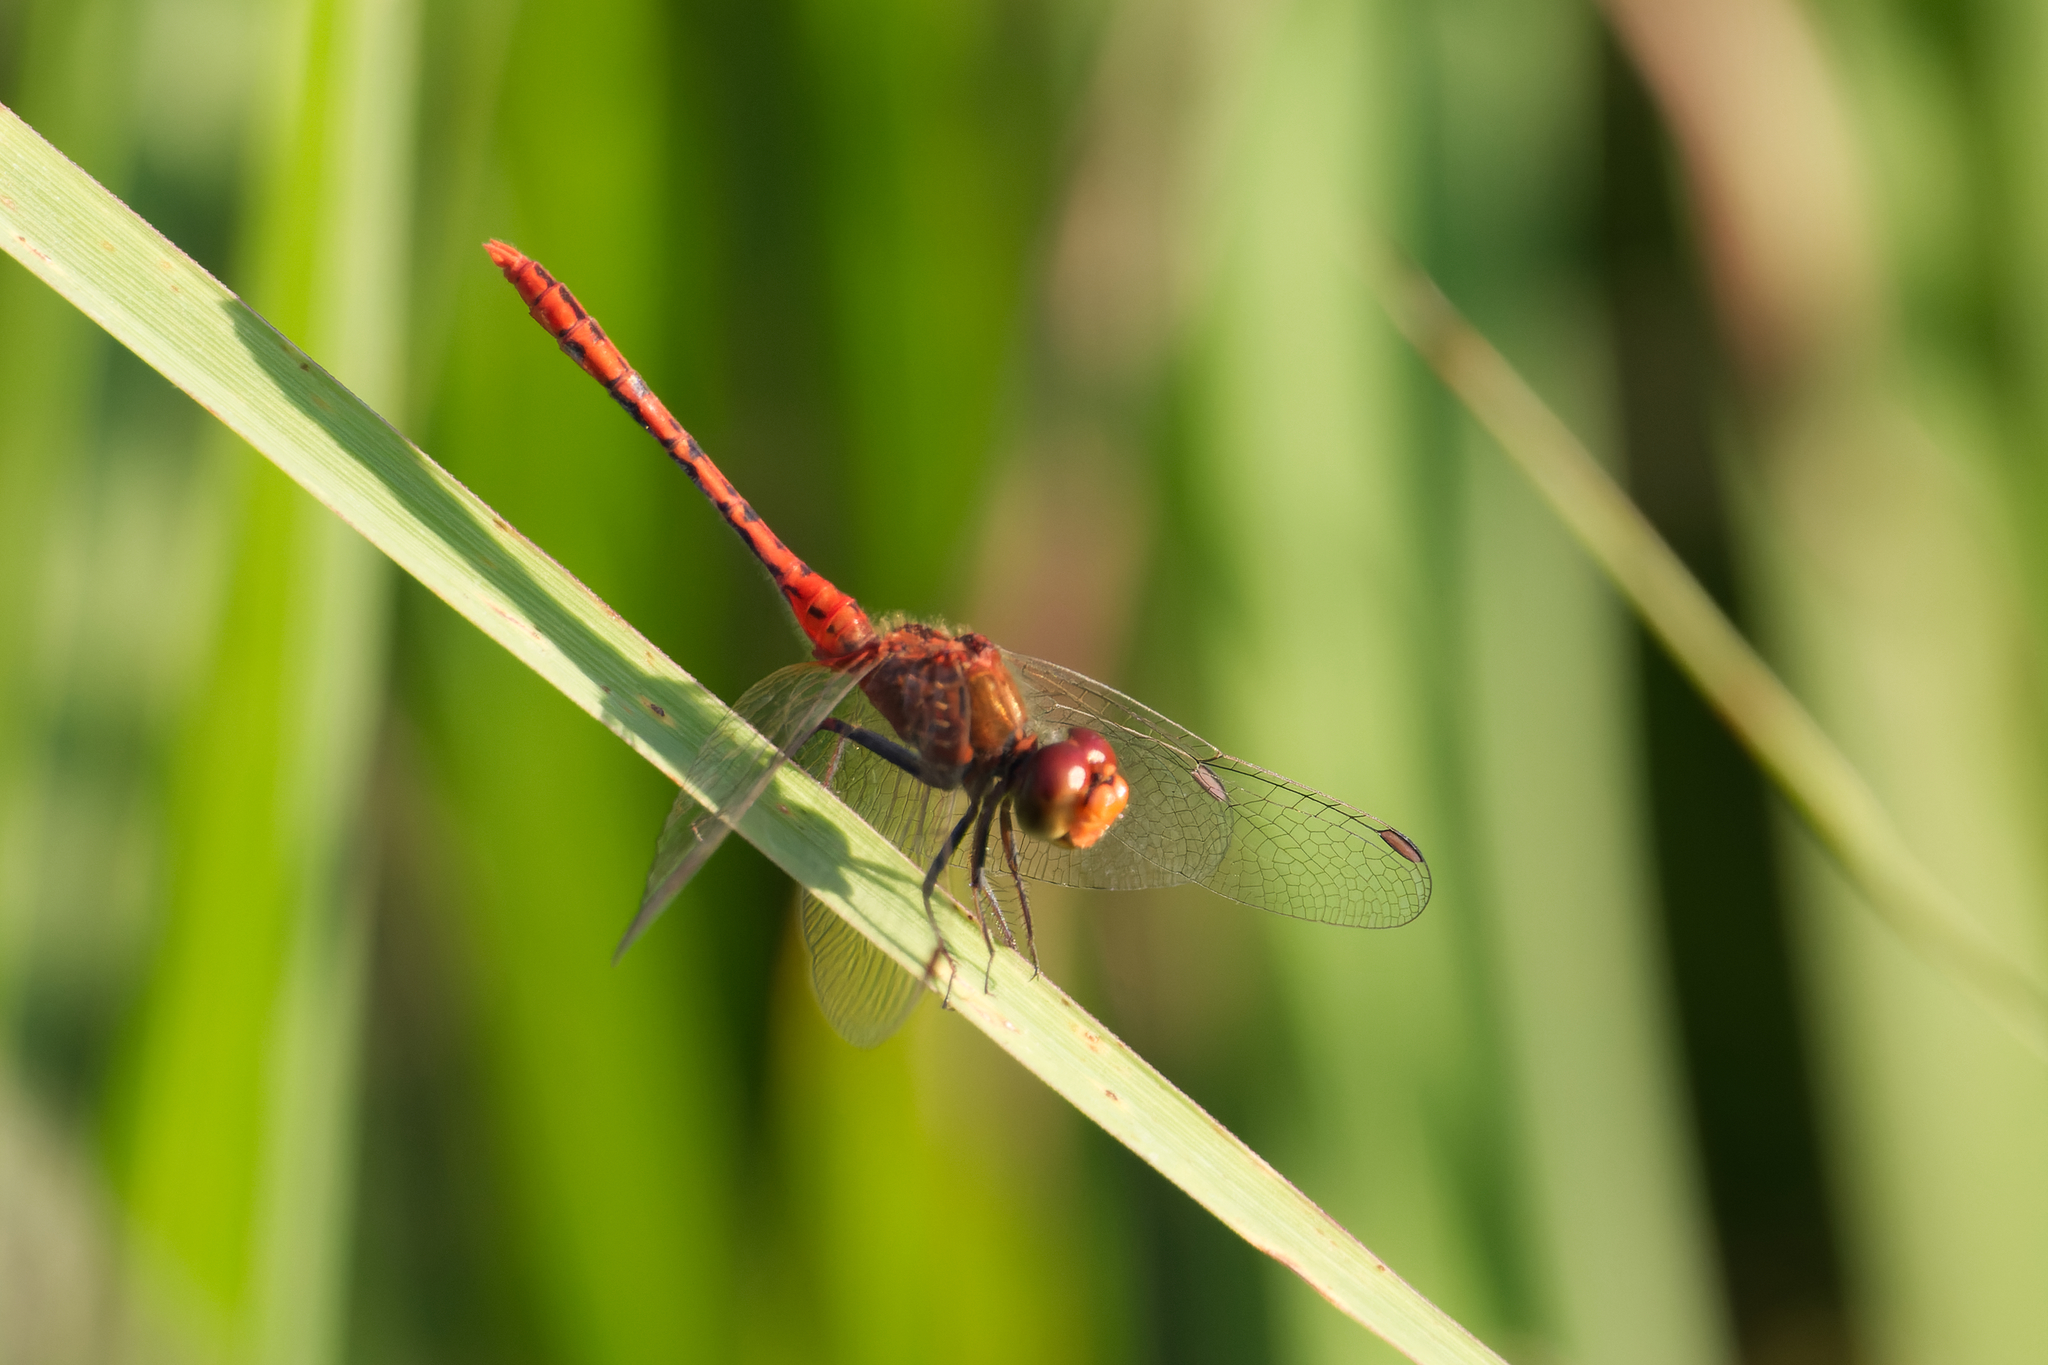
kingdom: Animalia
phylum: Arthropoda
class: Insecta
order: Odonata
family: Libellulidae
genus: Diplacodes
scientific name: Diplacodes bipunctata
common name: Red percher dragonfly
